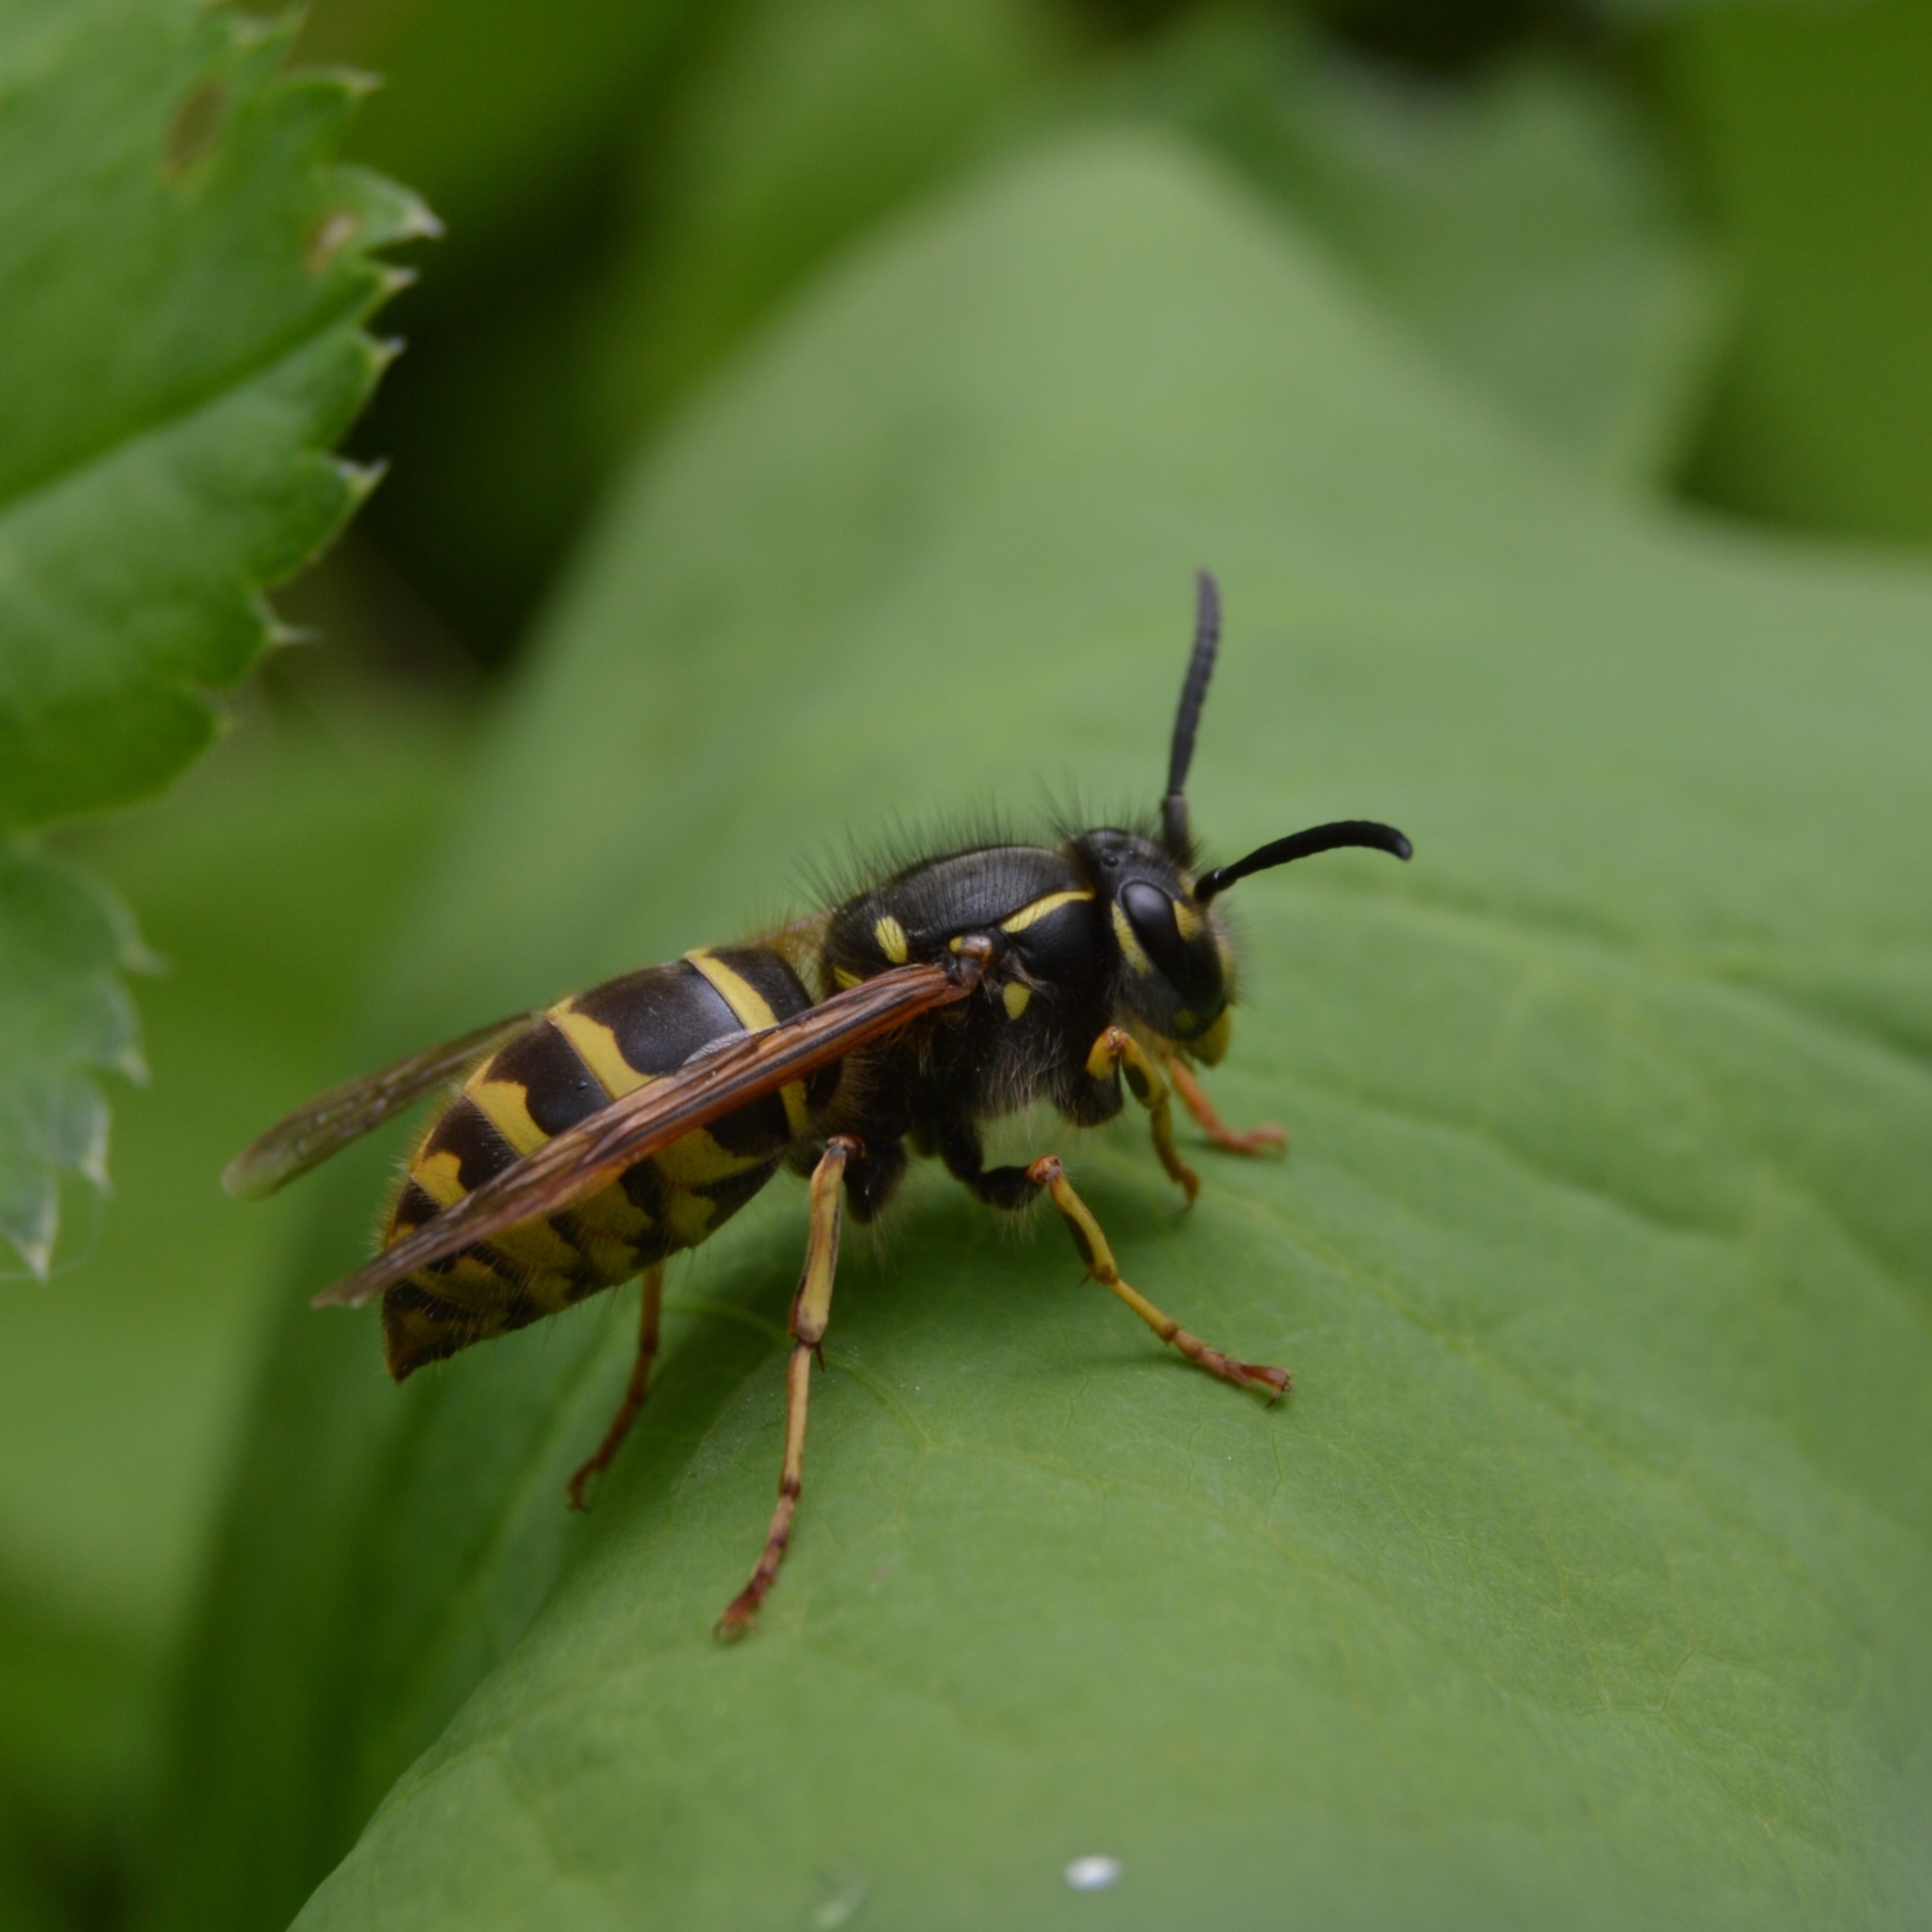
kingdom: Animalia
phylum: Arthropoda
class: Insecta
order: Hymenoptera
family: Vespidae
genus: Vespula
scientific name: Vespula vulgaris
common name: Common wasp
